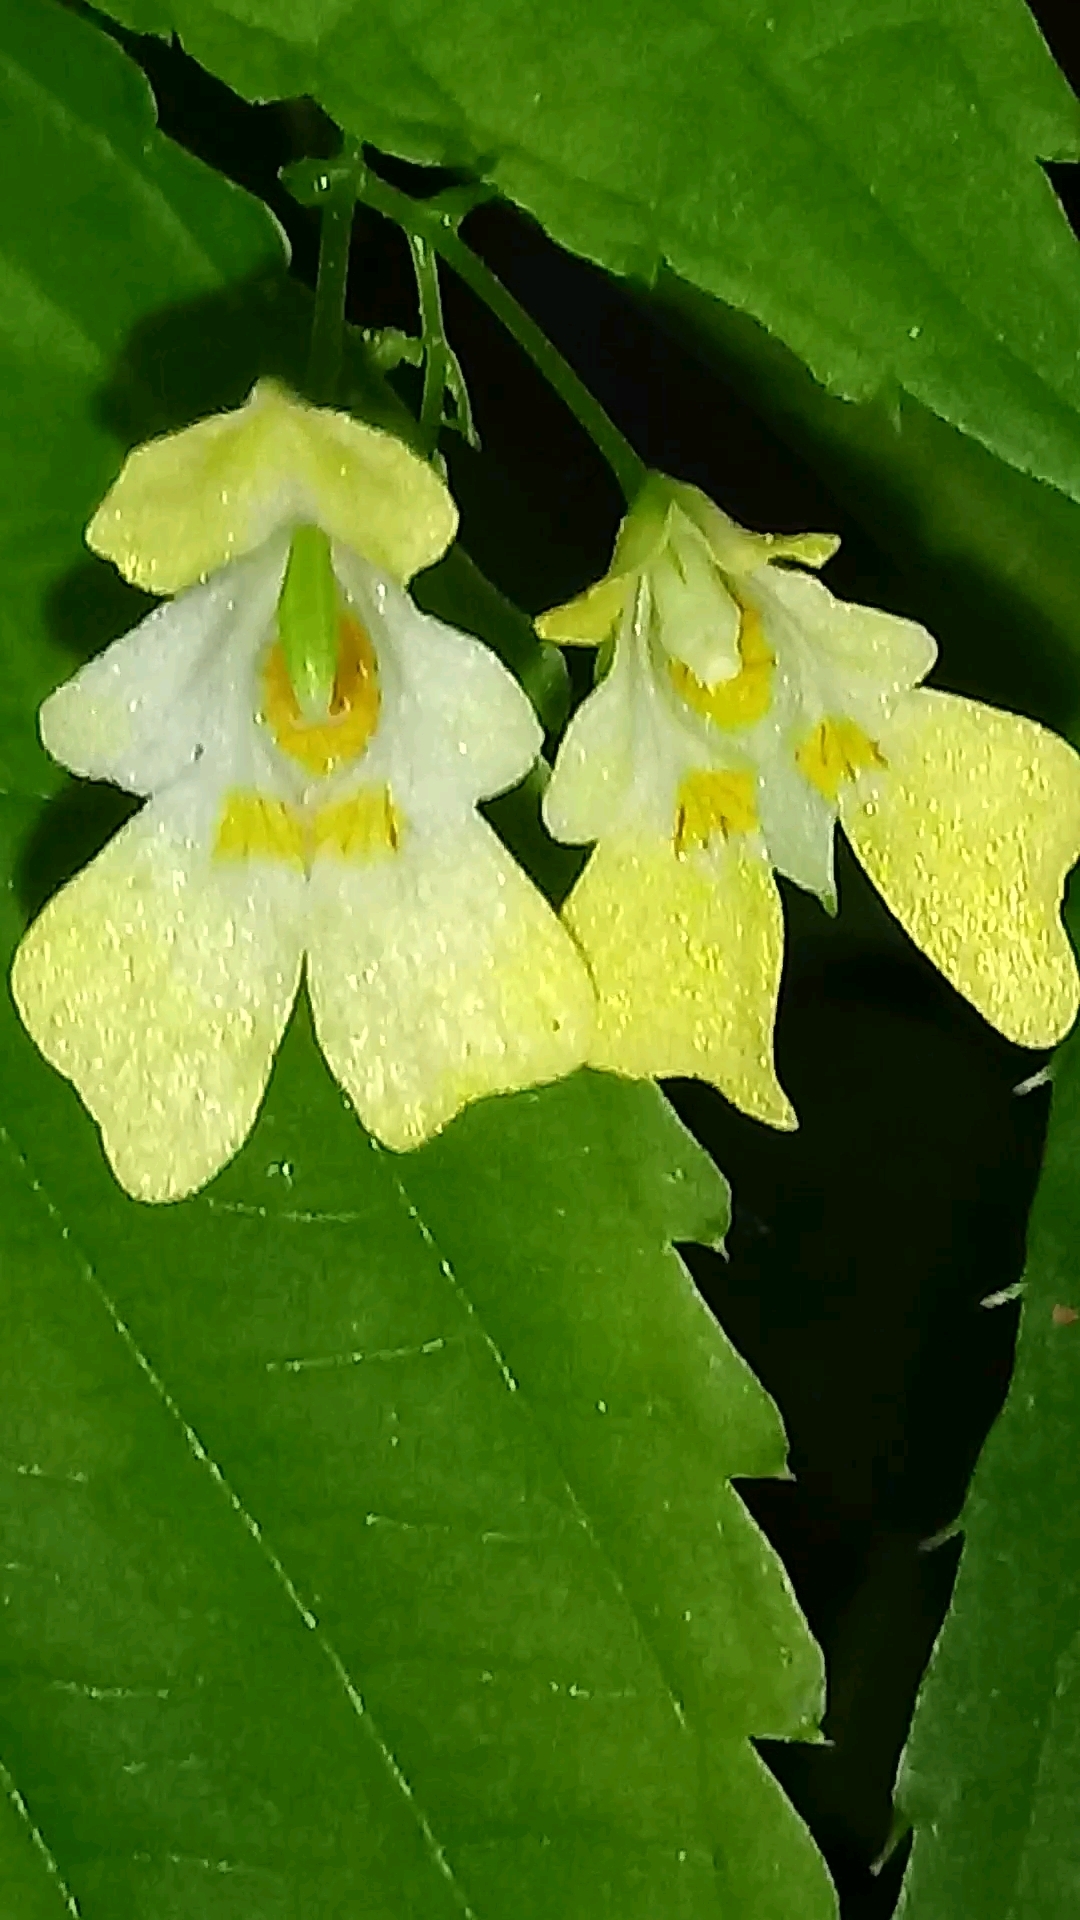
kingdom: Plantae
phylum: Tracheophyta
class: Magnoliopsida
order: Ericales
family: Balsaminaceae
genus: Impatiens
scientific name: Impatiens parviflora
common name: Small balsam
